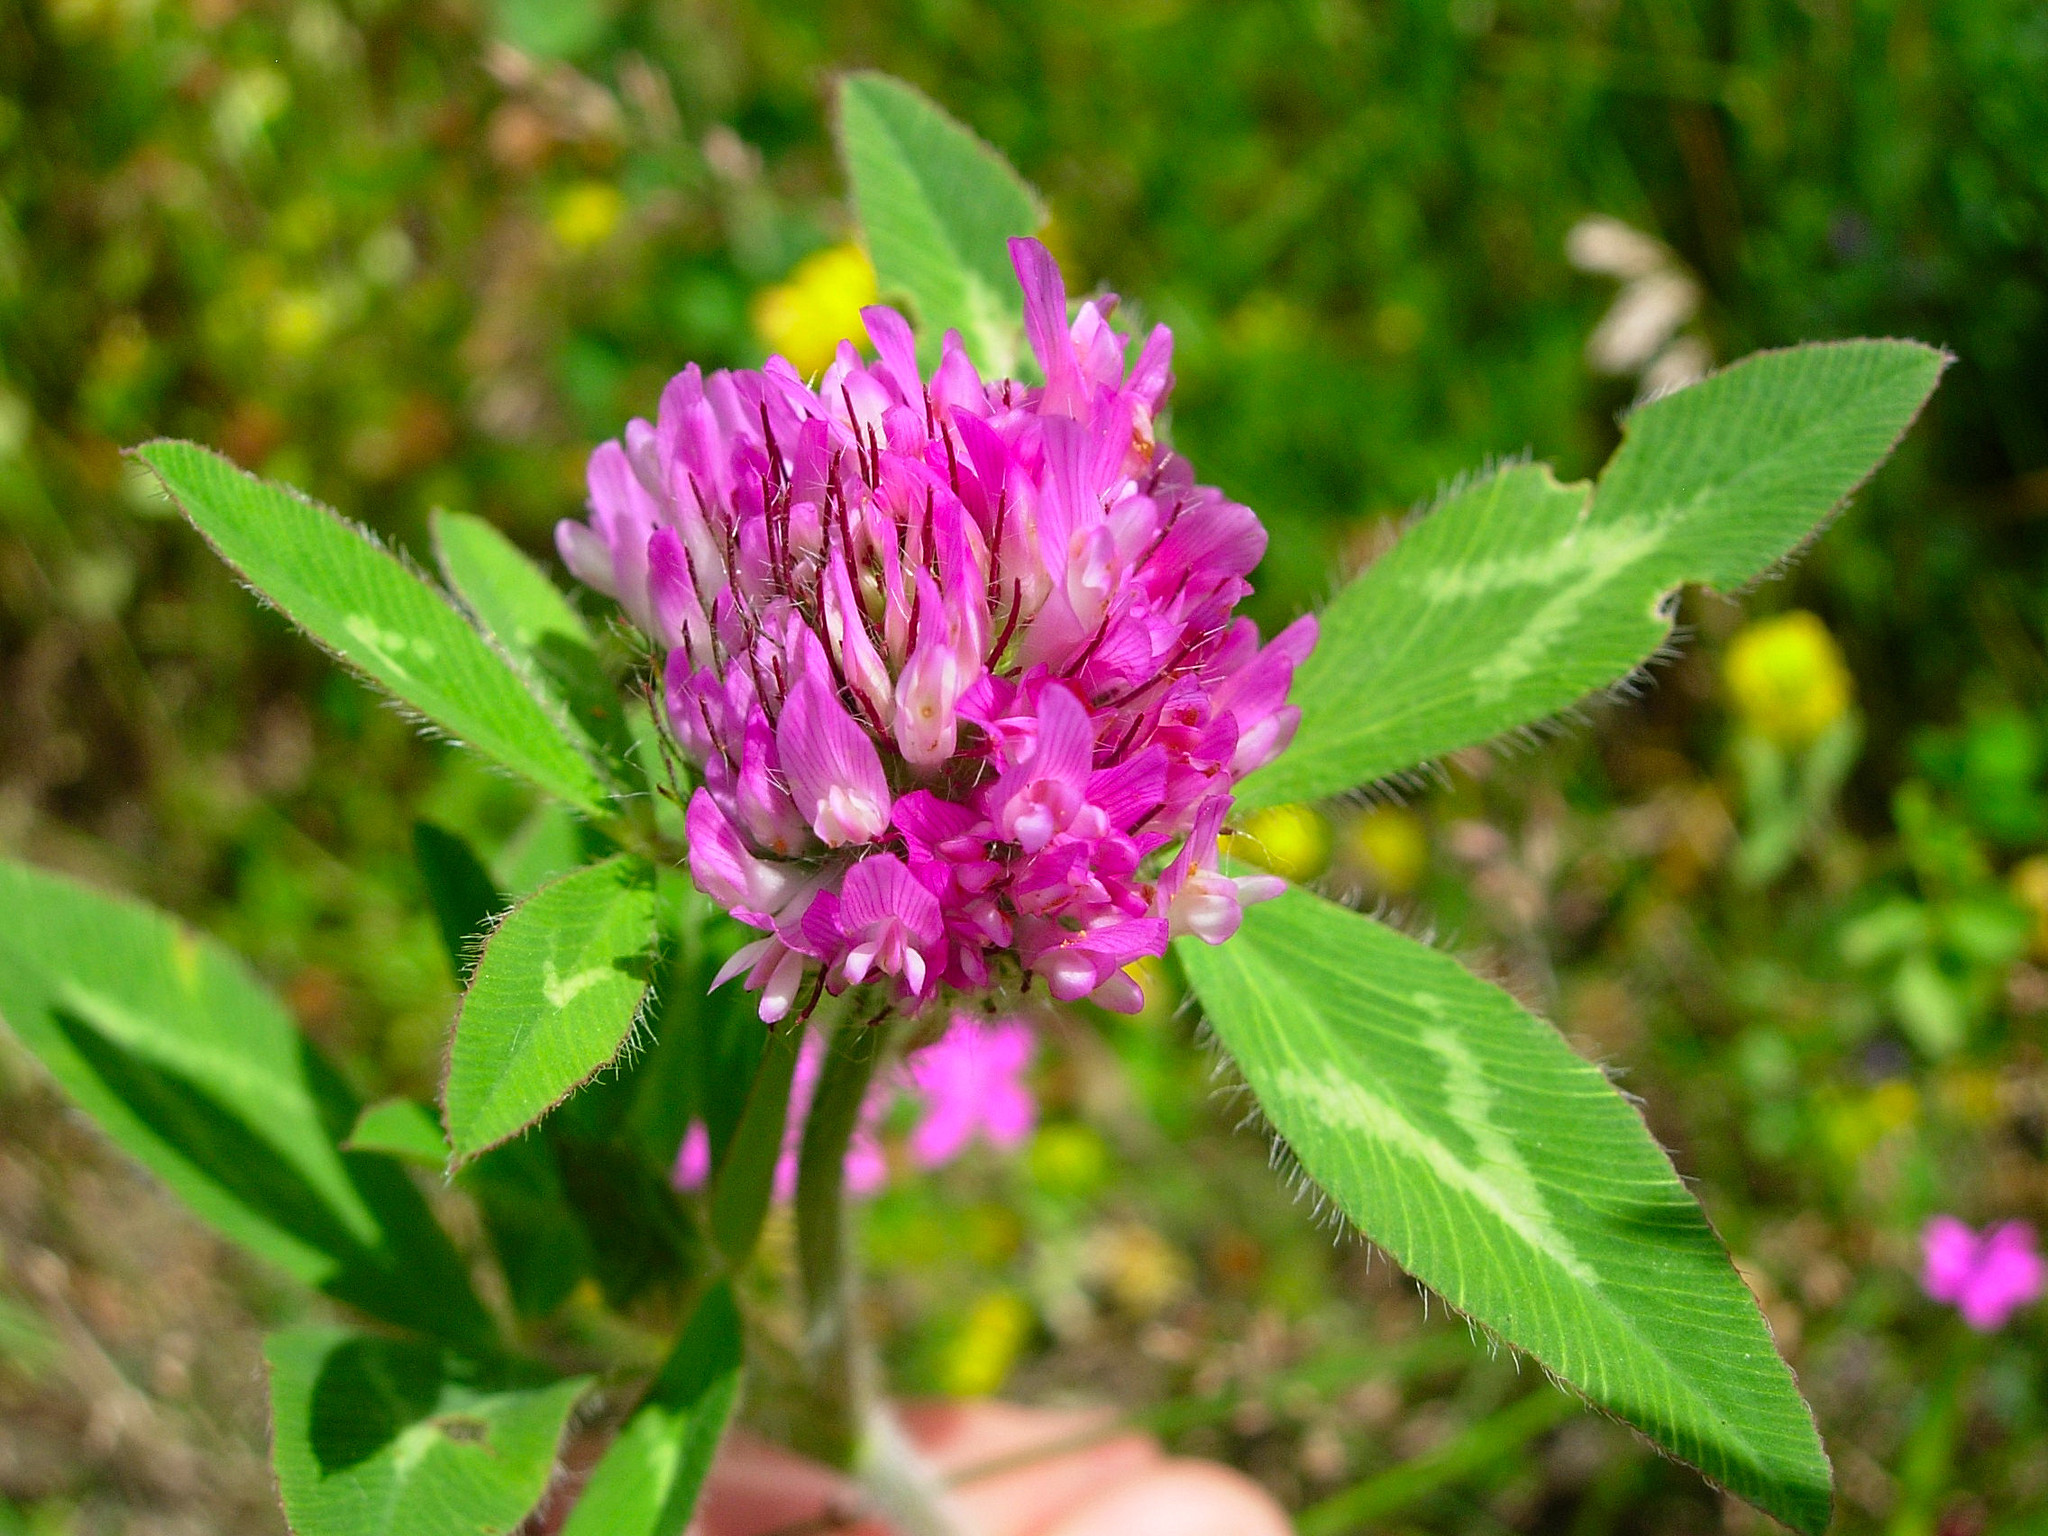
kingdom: Plantae
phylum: Tracheophyta
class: Magnoliopsida
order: Fabales
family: Fabaceae
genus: Trifolium
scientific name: Trifolium pratense
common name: Red clover
